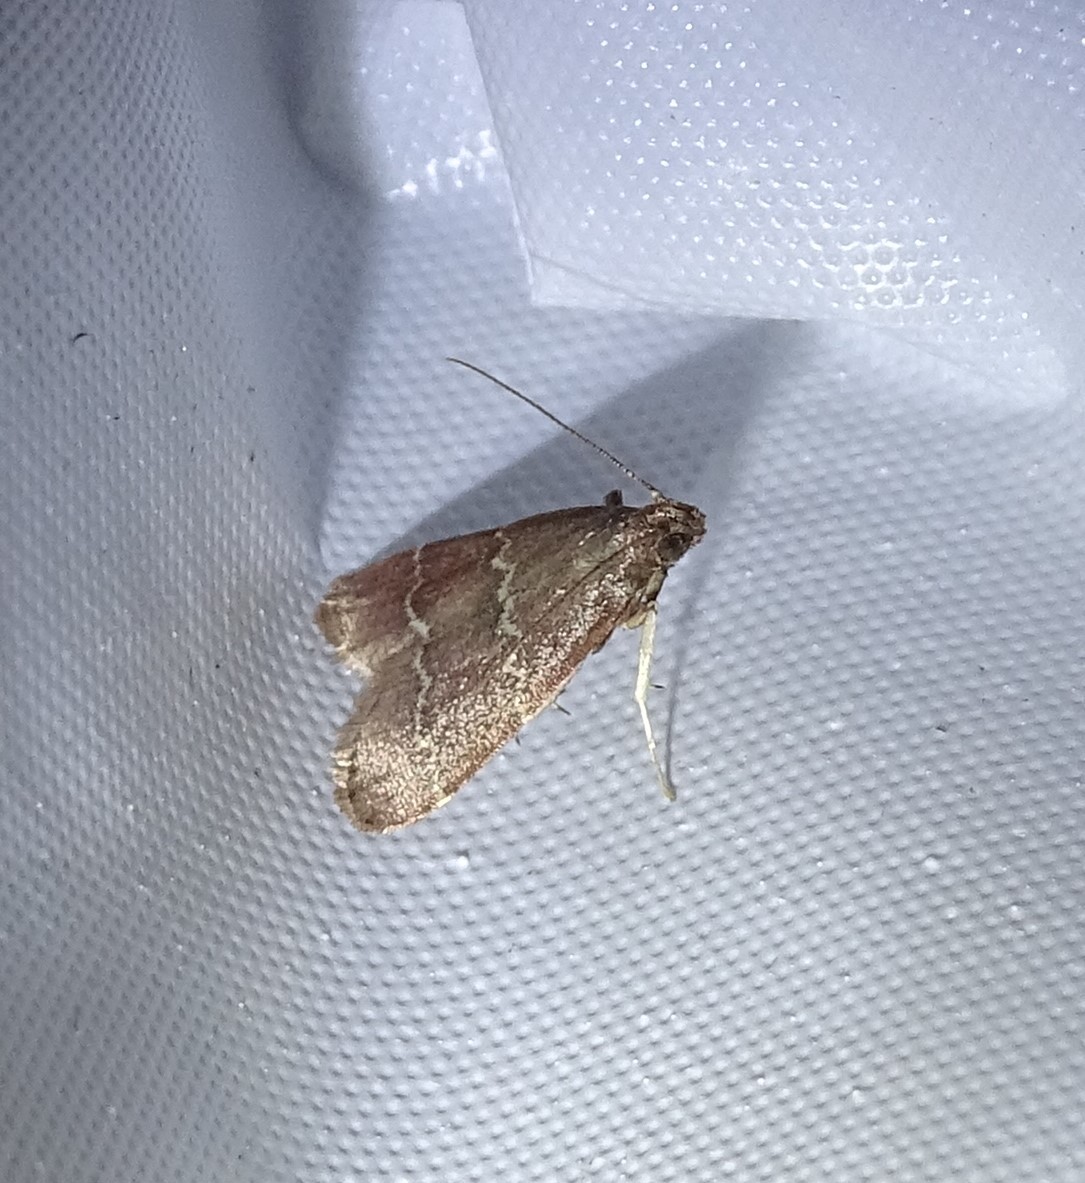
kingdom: Animalia
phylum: Arthropoda
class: Insecta
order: Lepidoptera
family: Pyralidae
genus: Arta
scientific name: Arta
